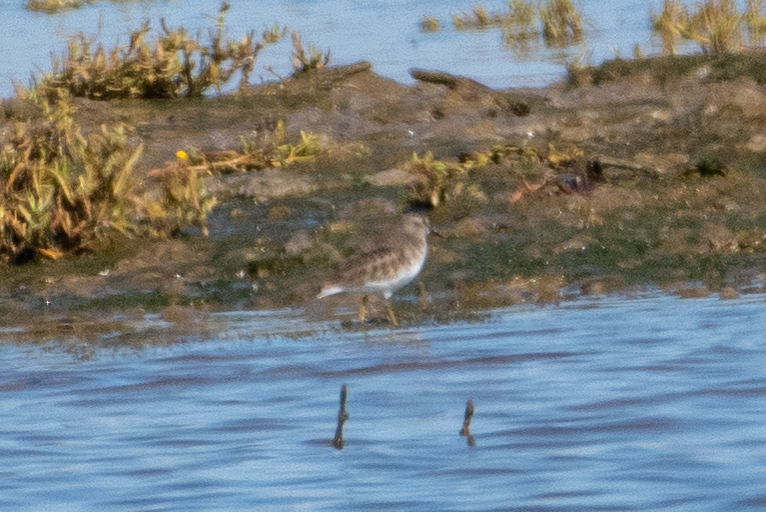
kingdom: Animalia
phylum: Chordata
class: Aves
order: Charadriiformes
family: Scolopacidae
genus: Calidris
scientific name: Calidris minutilla
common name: Least sandpiper
